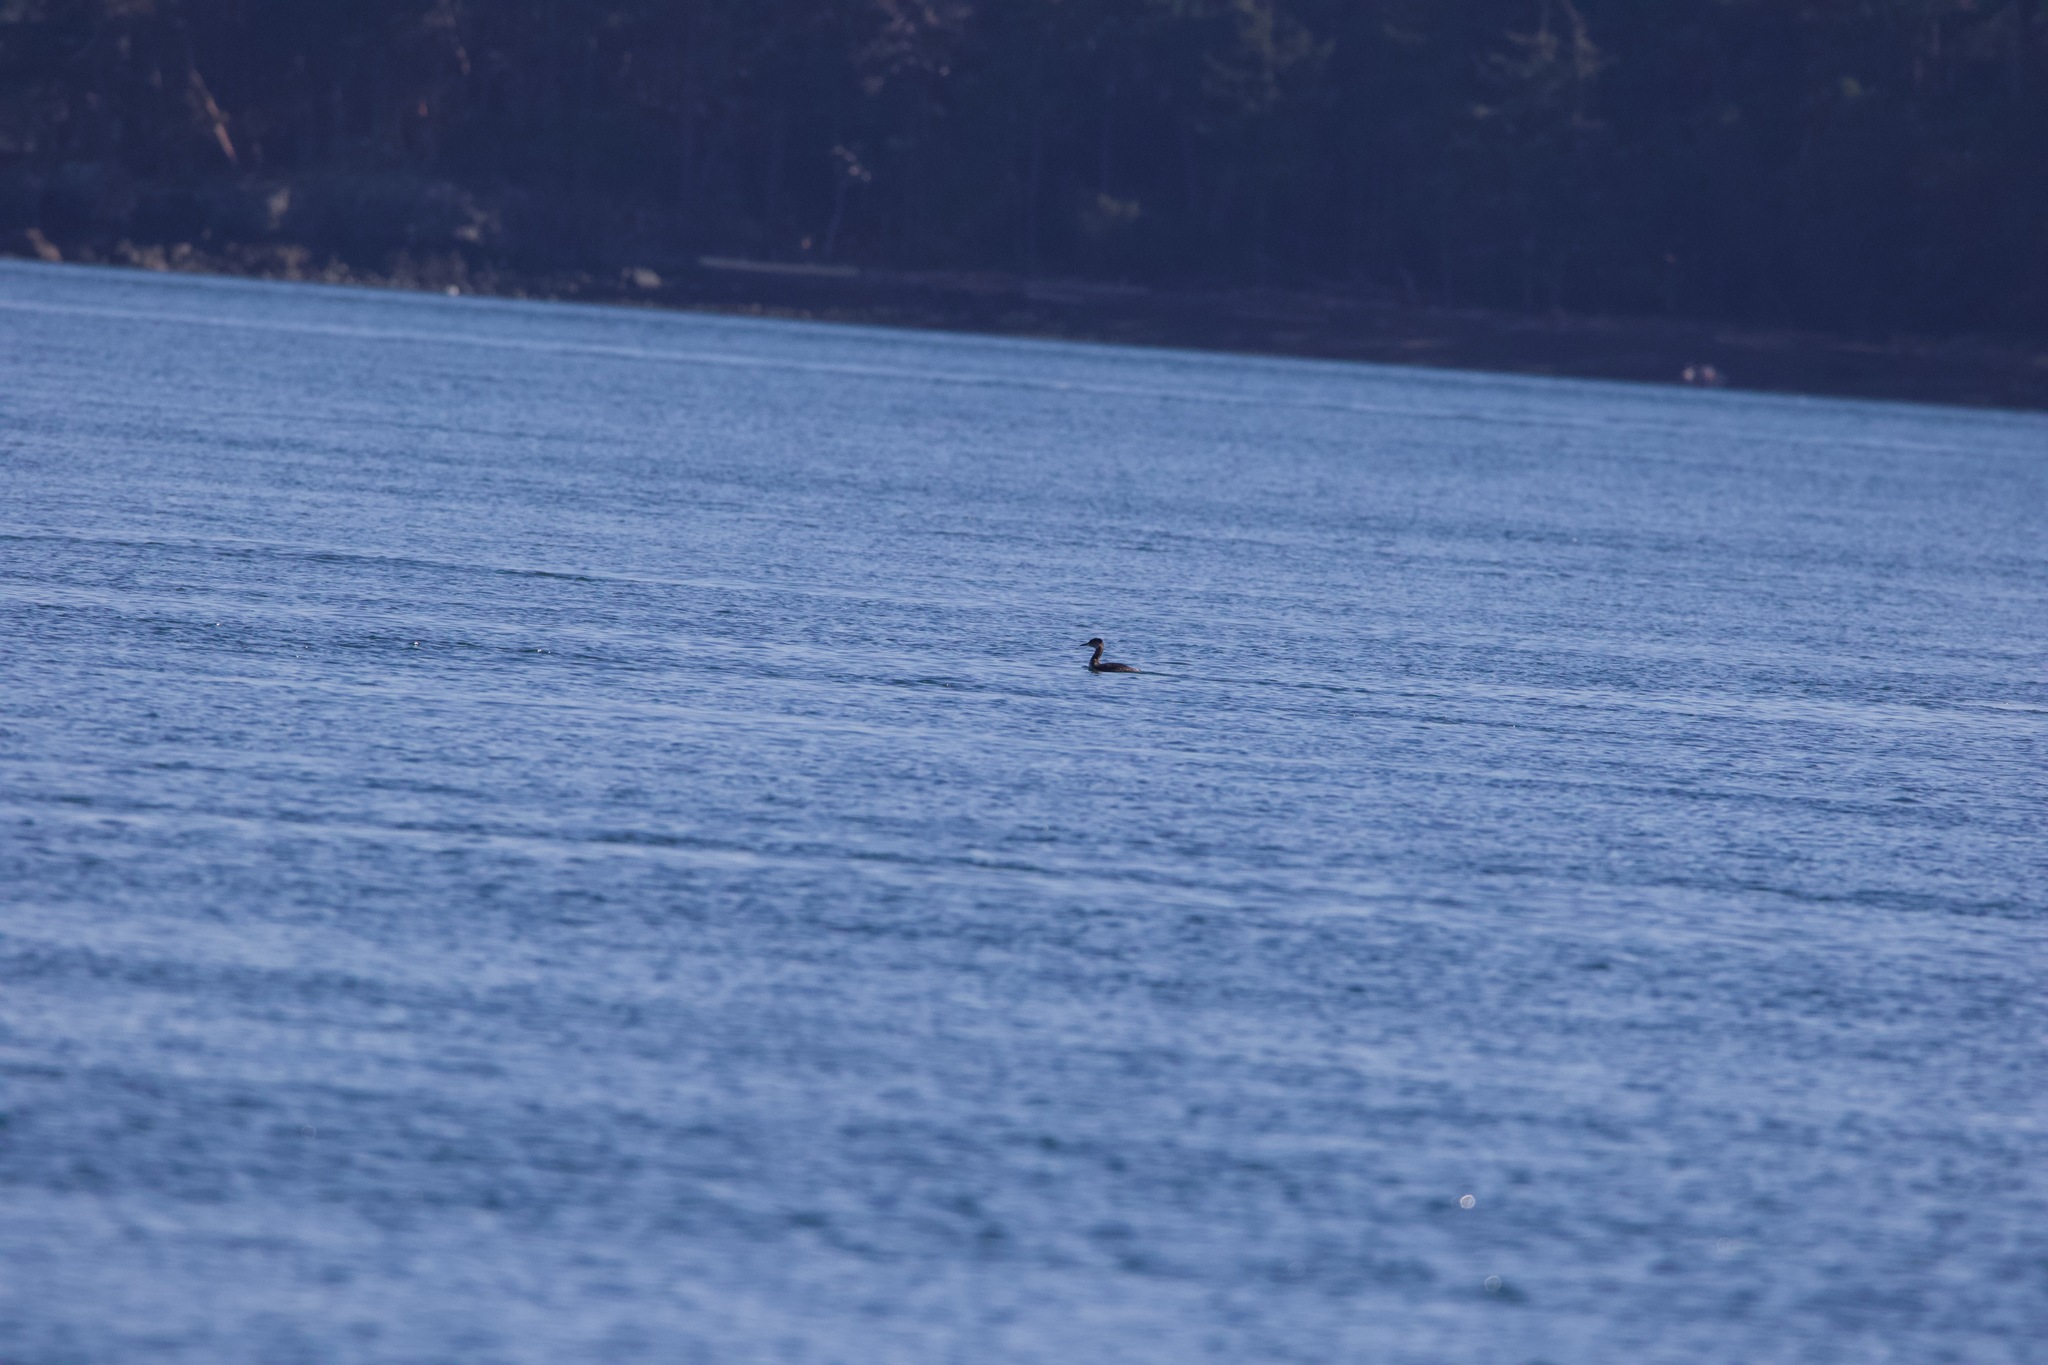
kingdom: Animalia
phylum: Chordata
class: Aves
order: Podicipediformes
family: Podicipedidae
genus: Podiceps
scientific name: Podiceps grisegena
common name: Red-necked grebe
